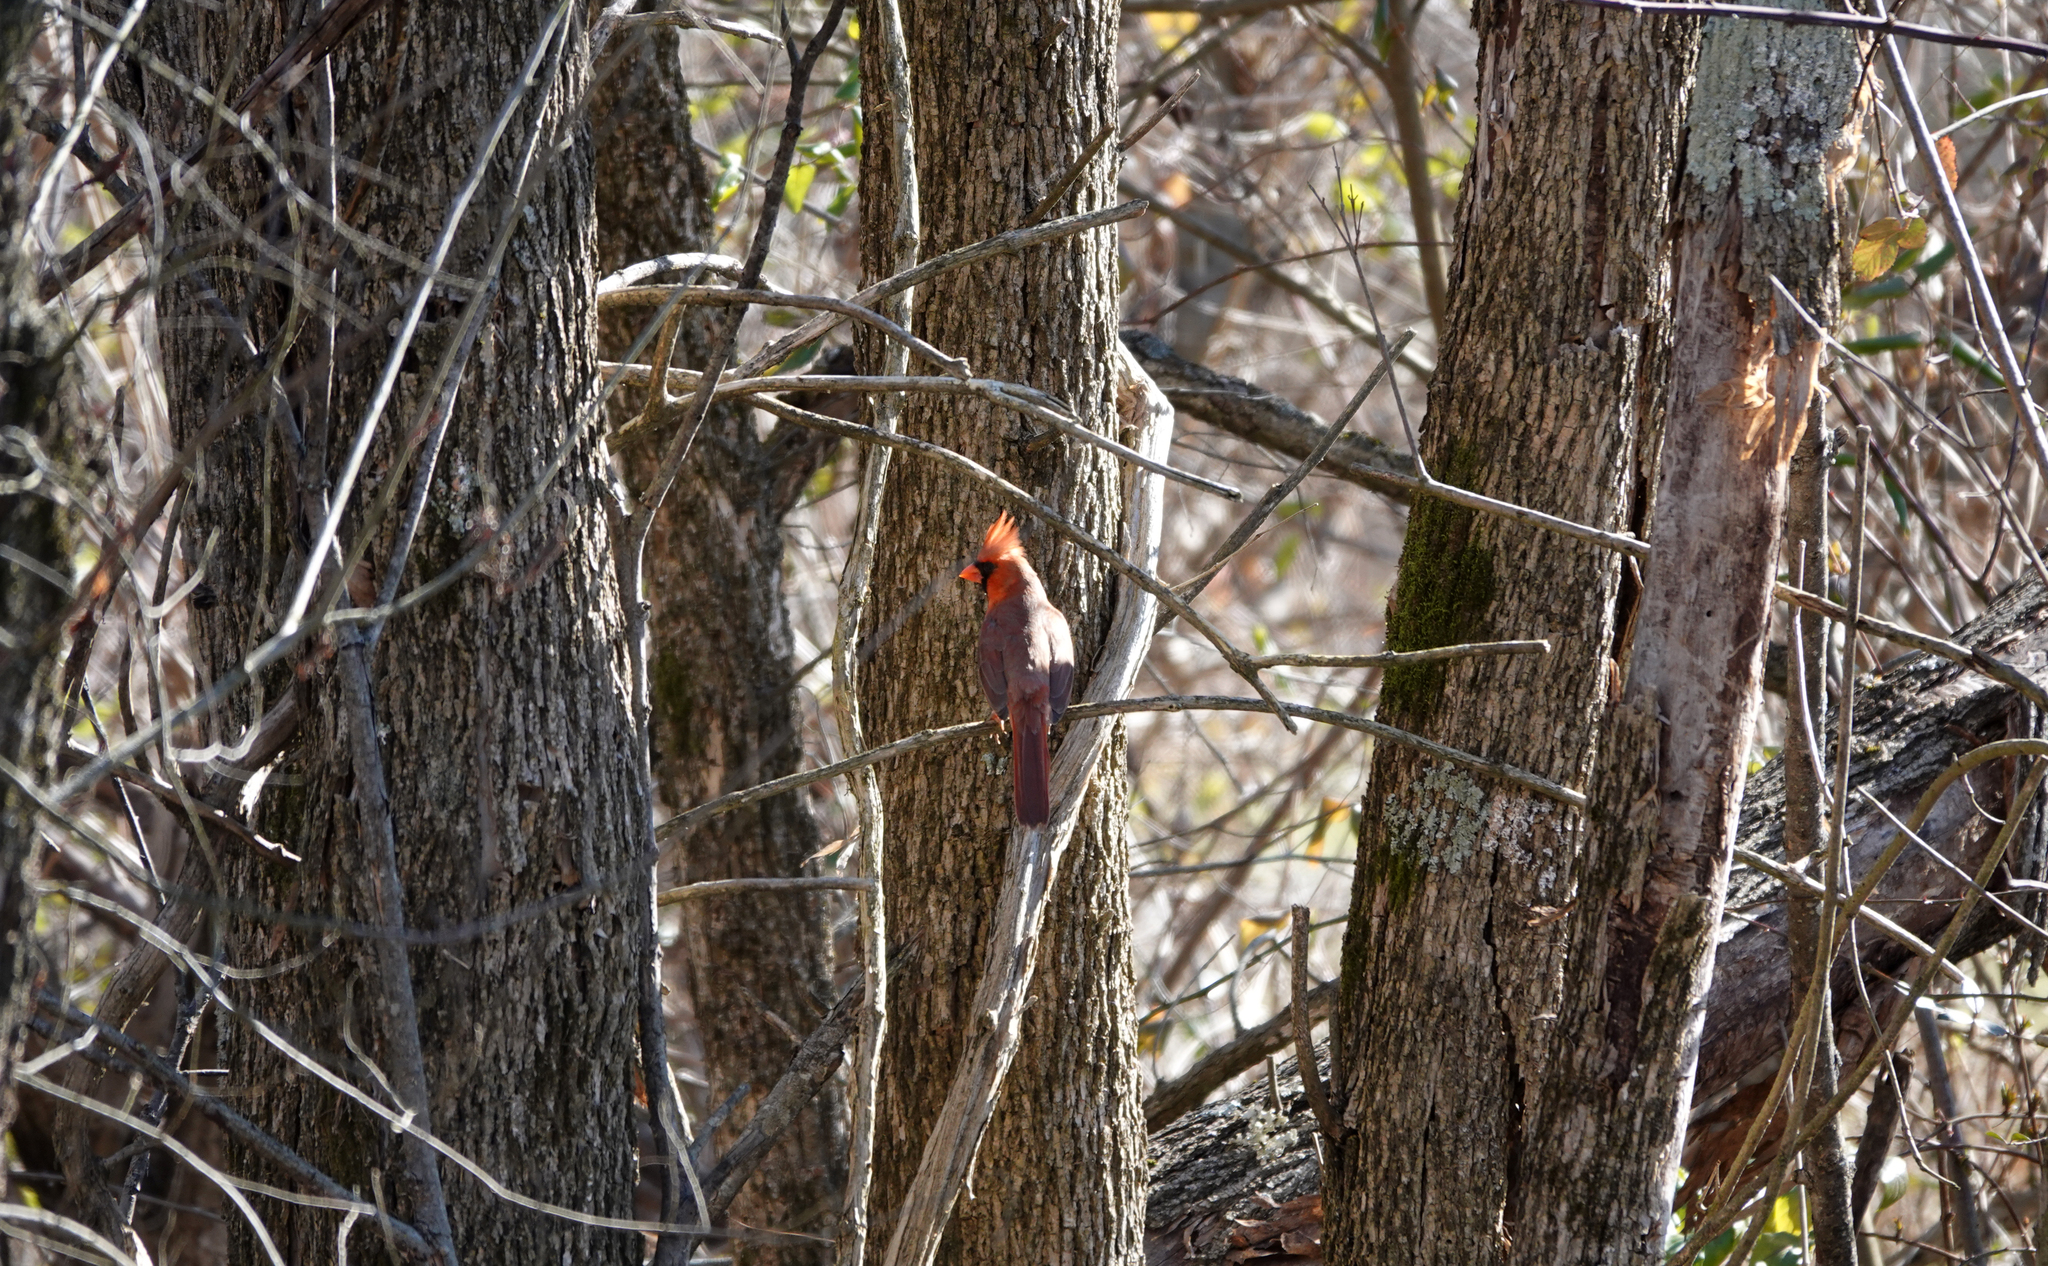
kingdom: Animalia
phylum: Chordata
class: Aves
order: Passeriformes
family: Cardinalidae
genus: Cardinalis
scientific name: Cardinalis cardinalis
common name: Northern cardinal
